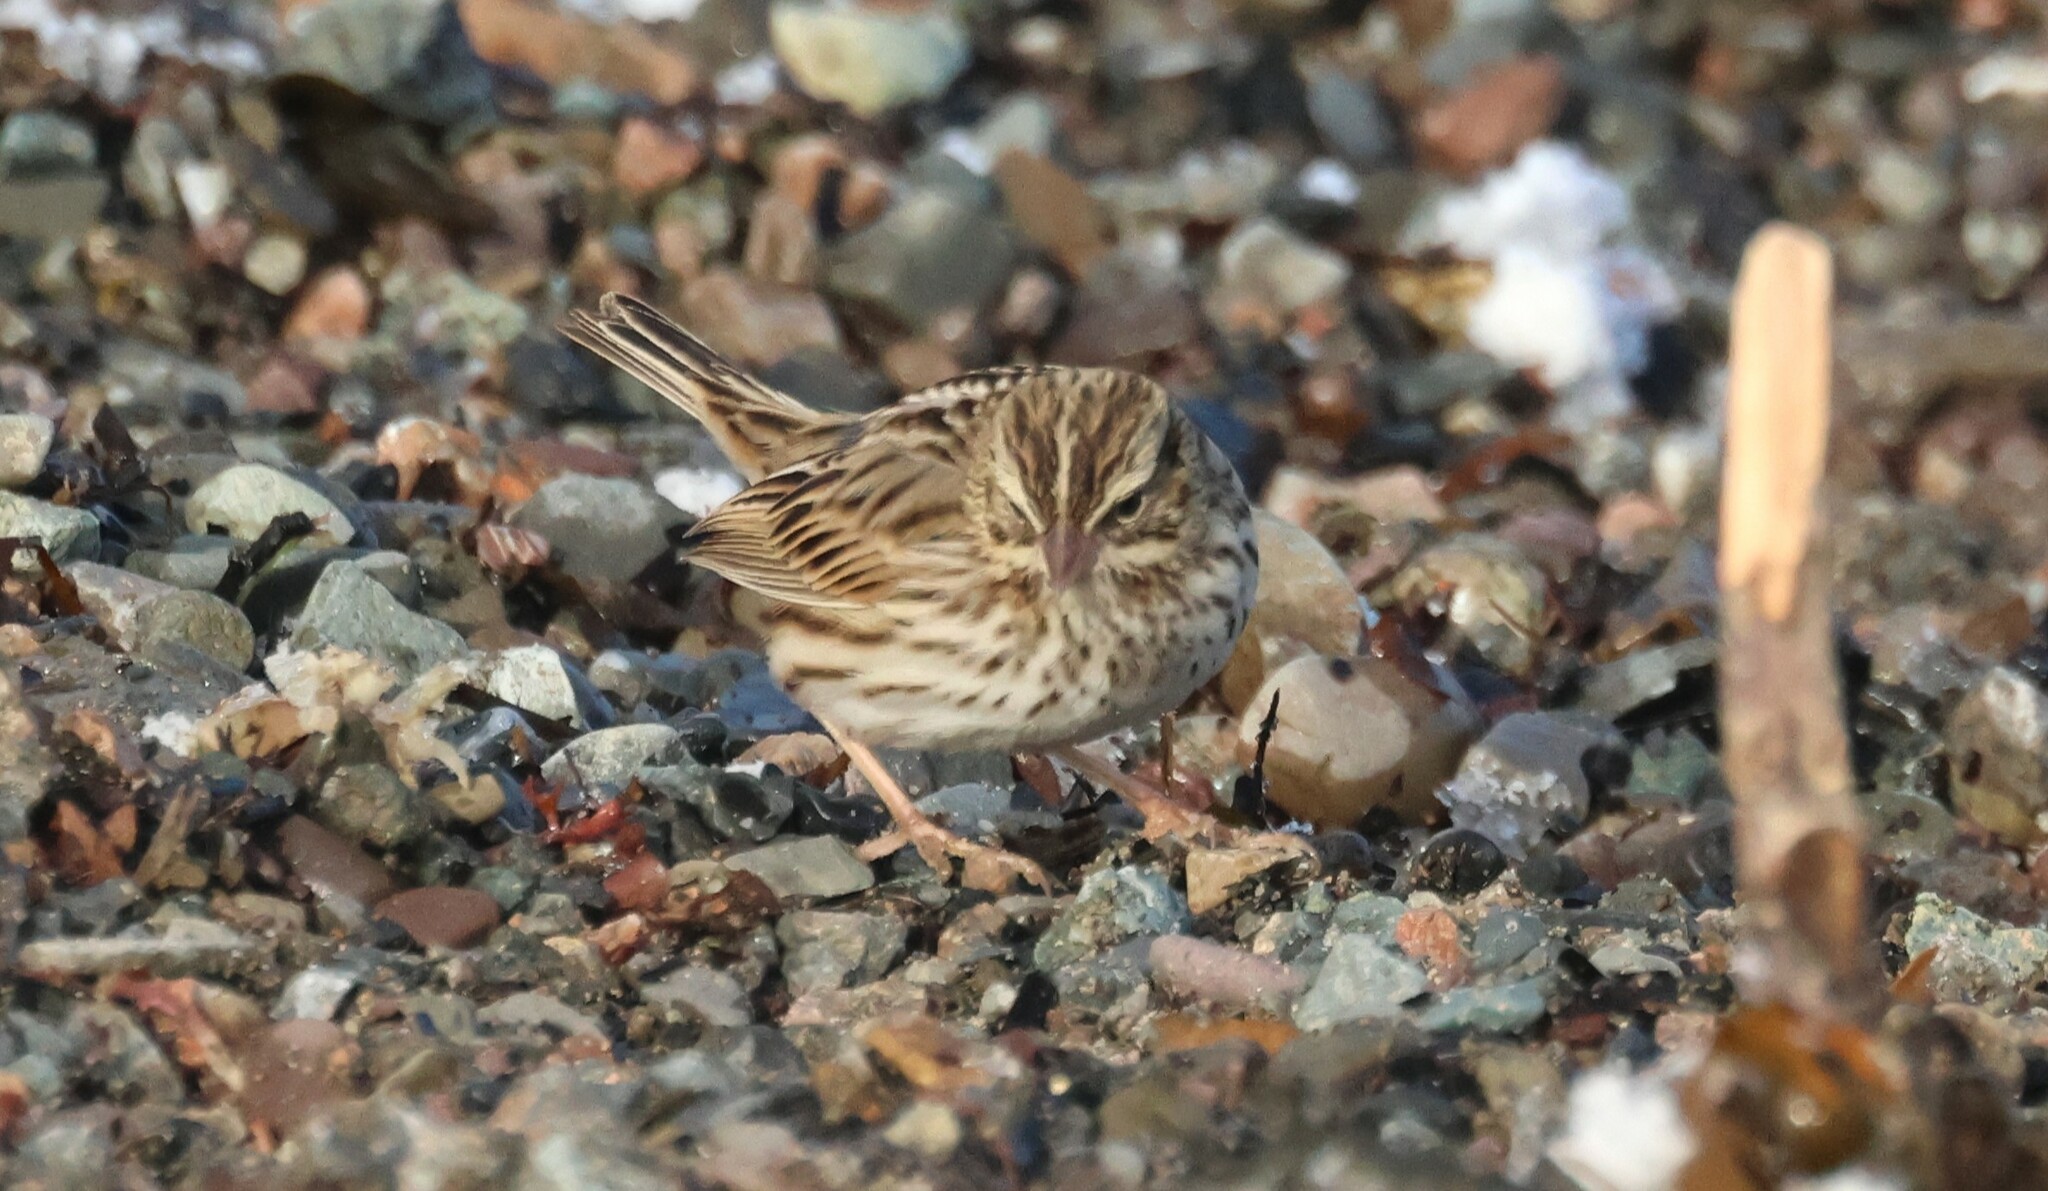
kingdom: Animalia
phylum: Chordata
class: Aves
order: Passeriformes
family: Passerellidae
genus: Passerculus
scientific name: Passerculus sandwichensis
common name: Savannah sparrow
